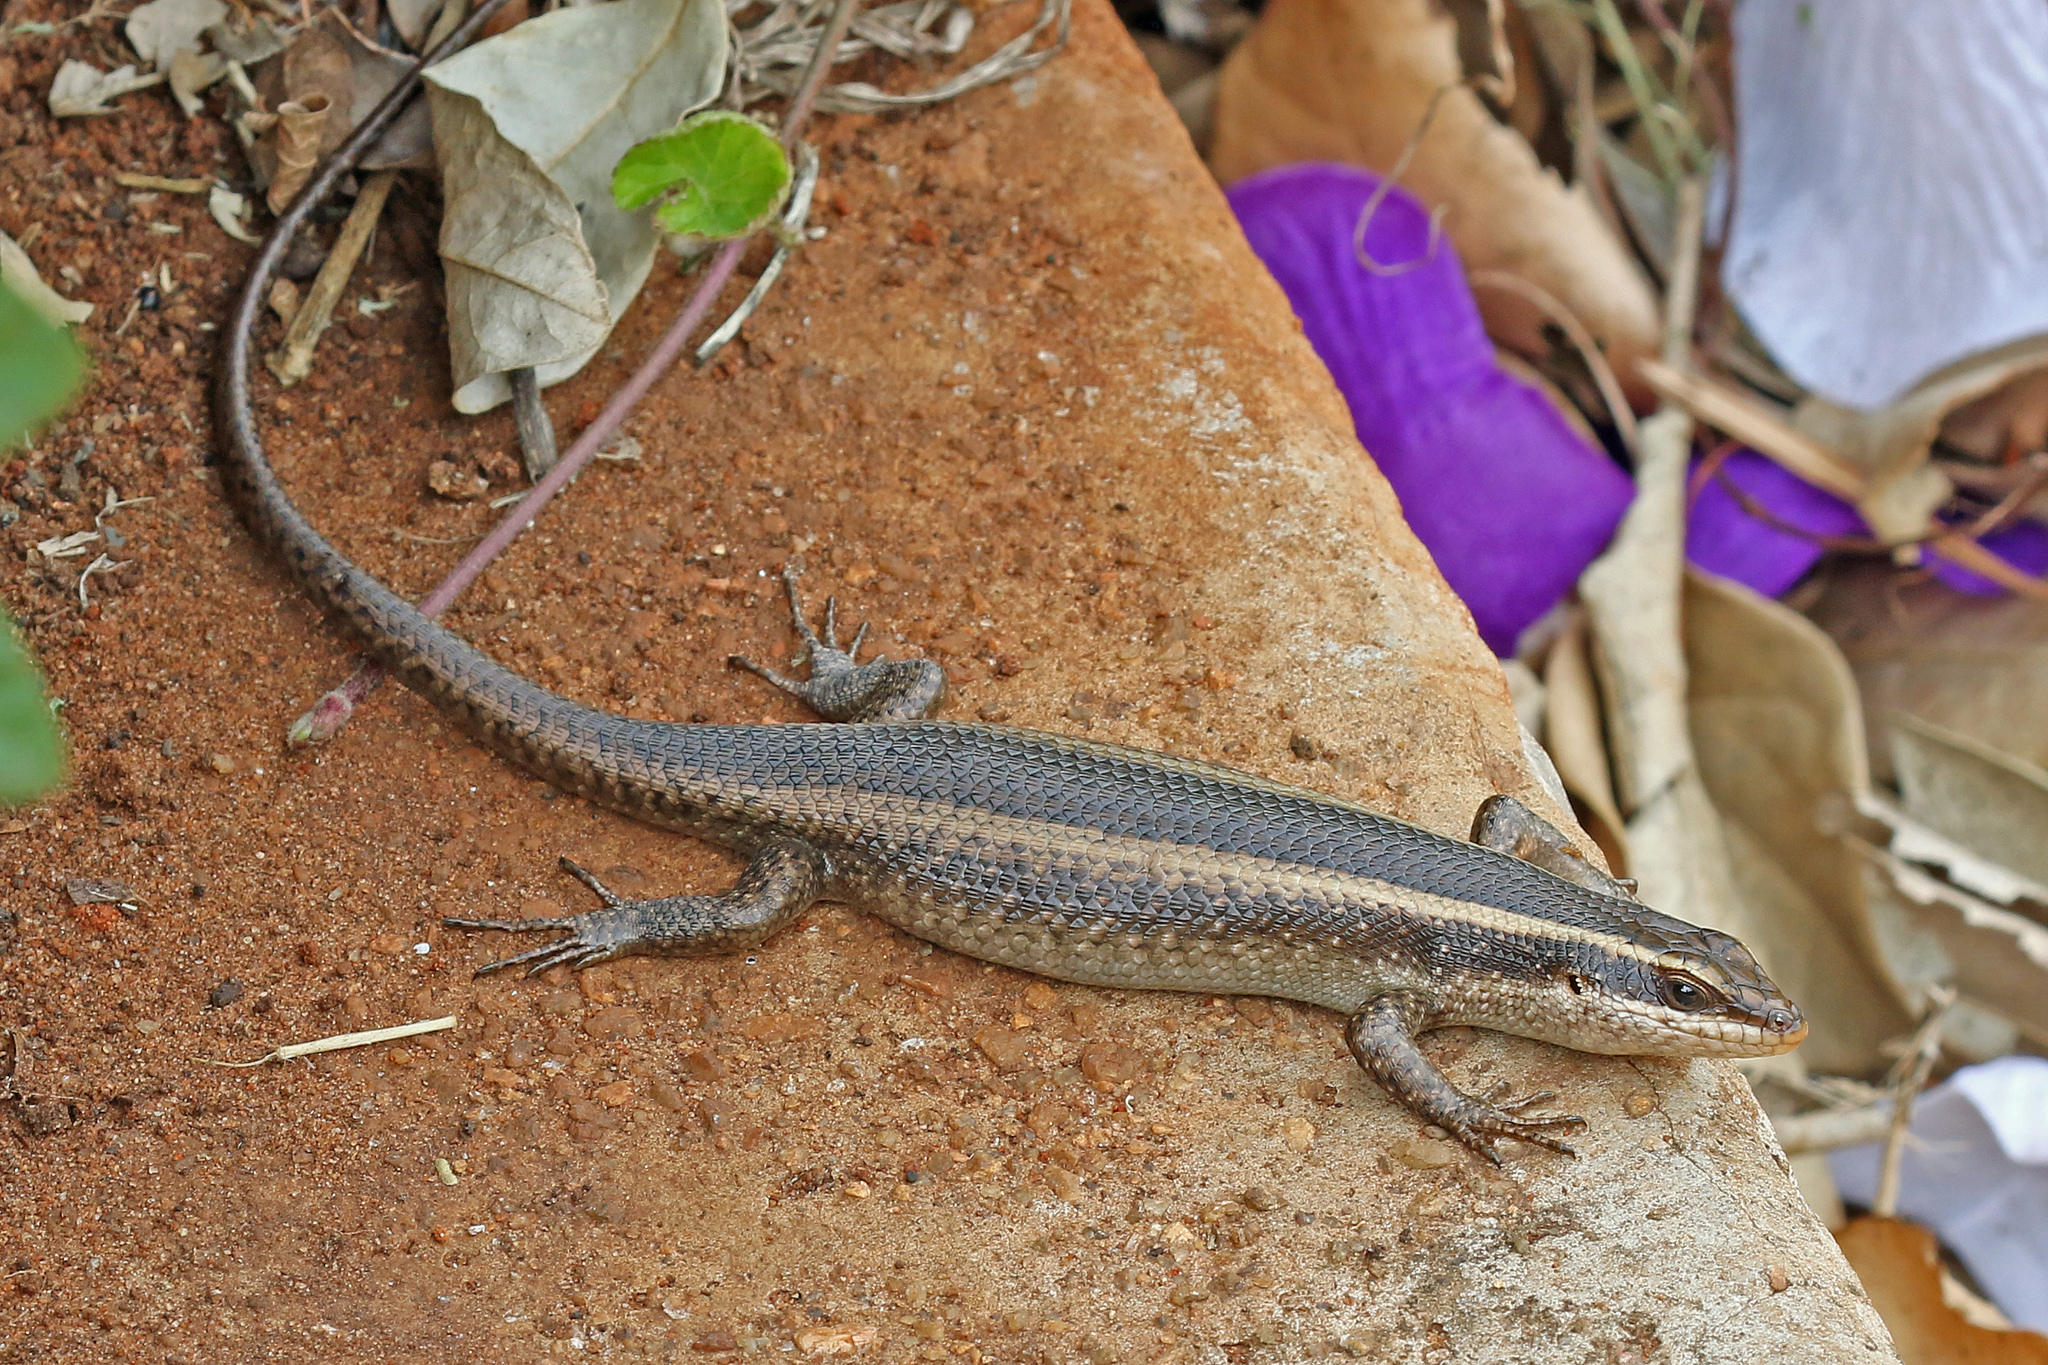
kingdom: Animalia
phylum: Chordata
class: Squamata
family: Scincidae
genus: Trachylepis
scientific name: Trachylepis striata
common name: African striped mabuya
